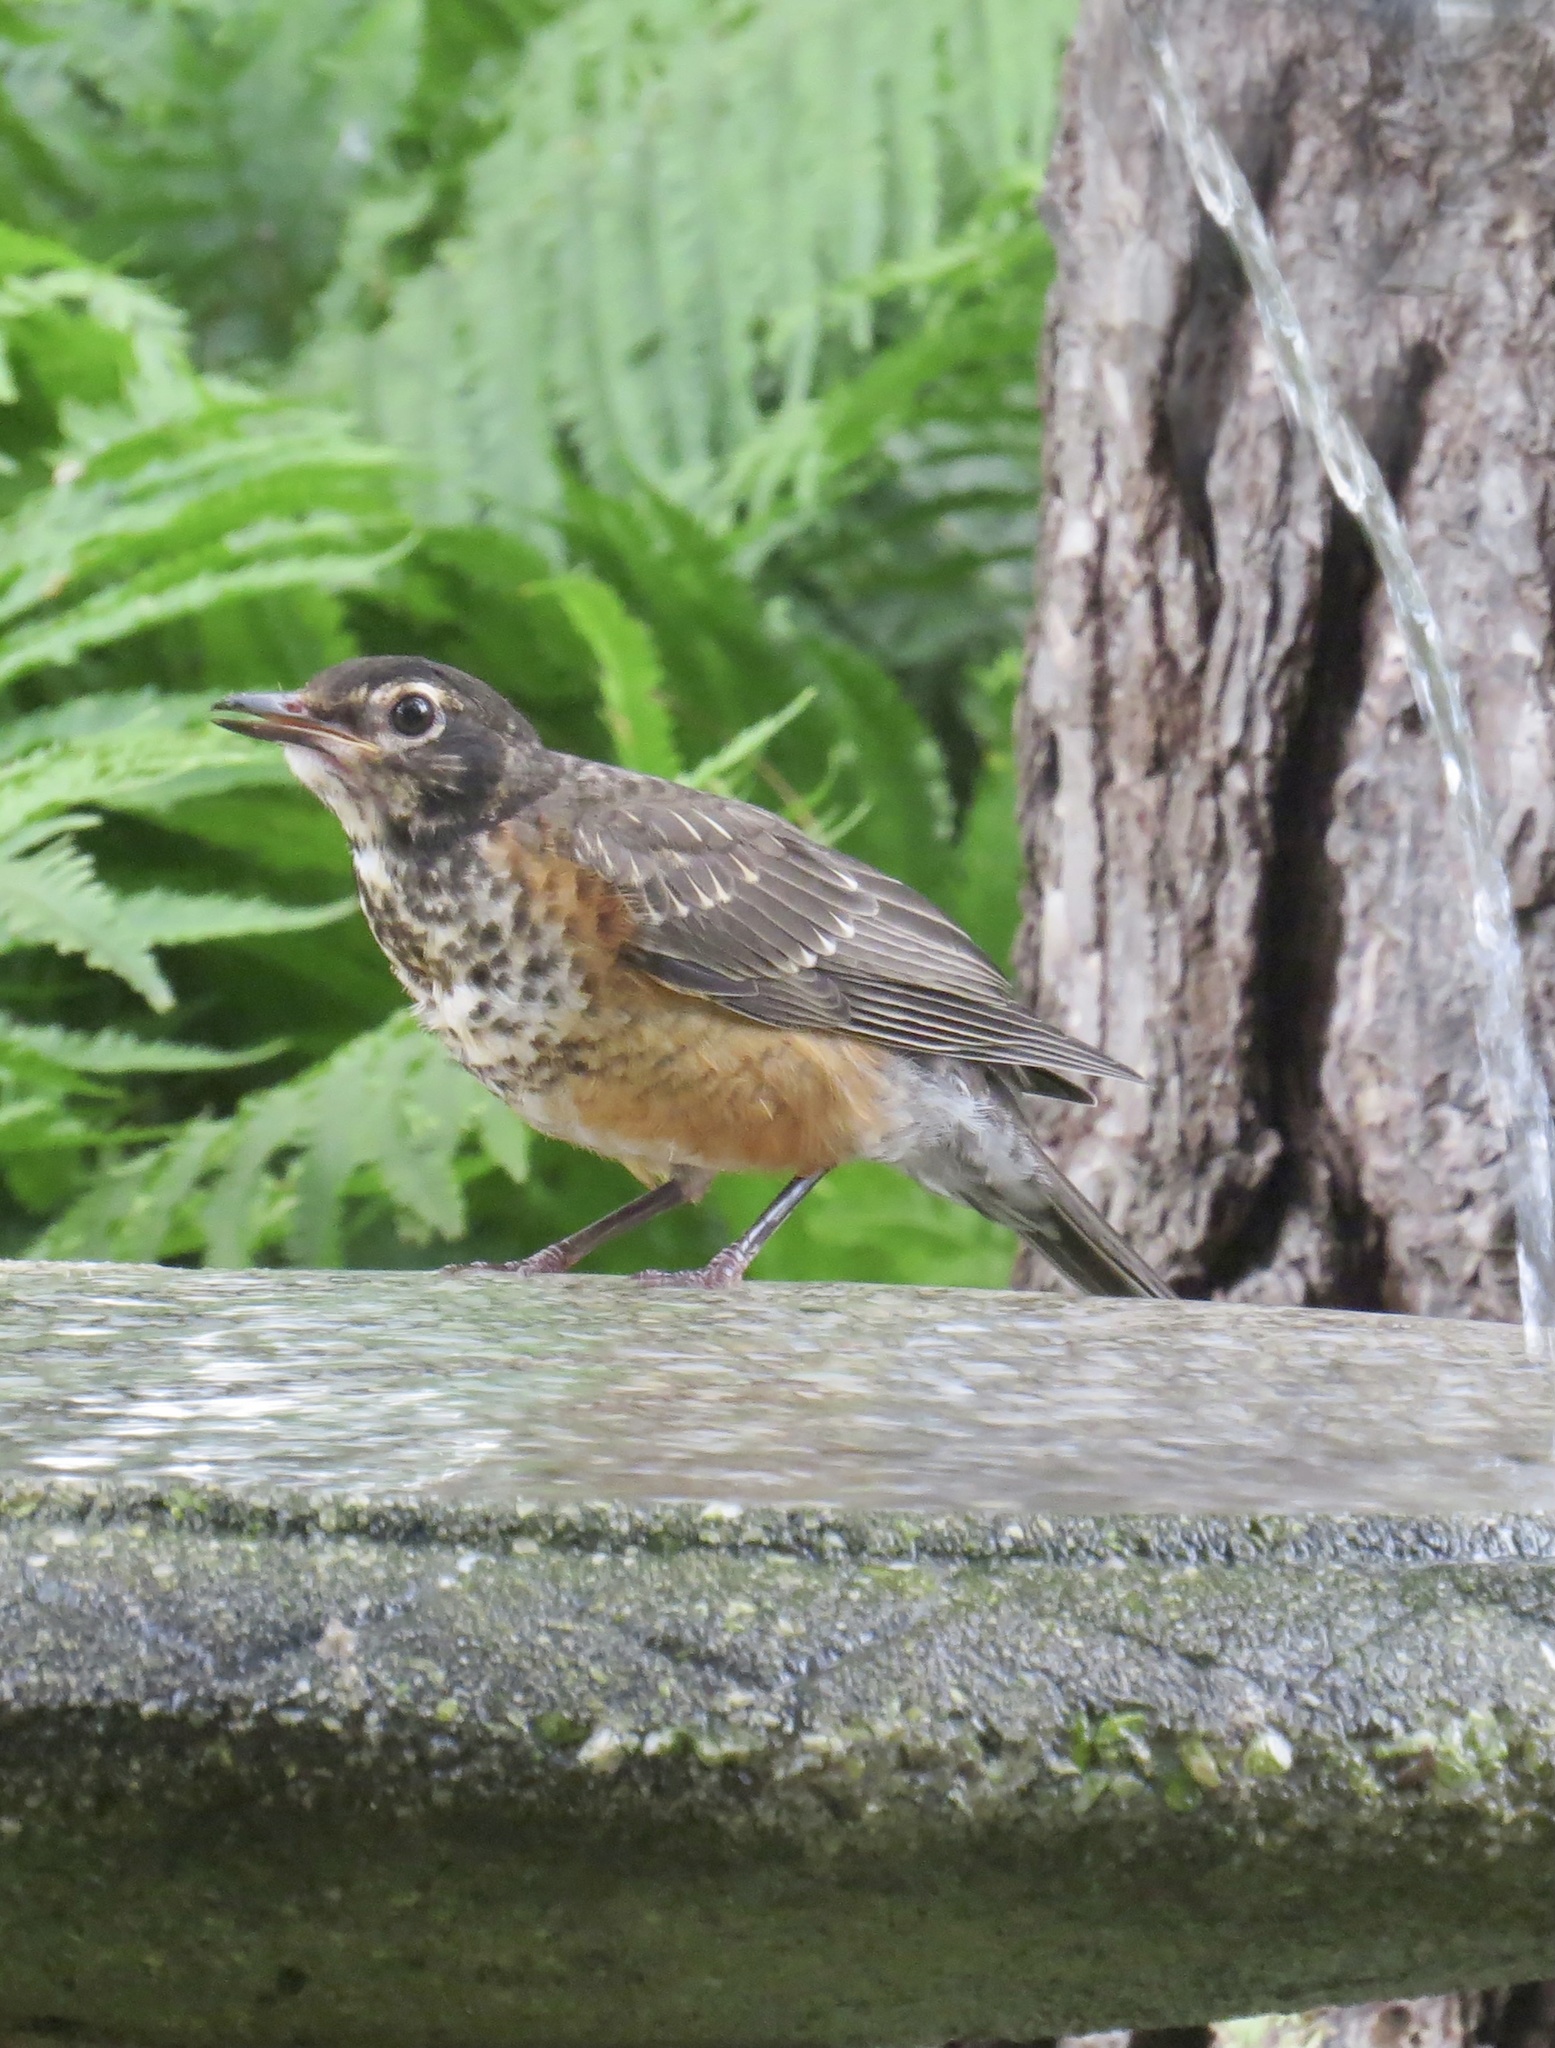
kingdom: Animalia
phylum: Chordata
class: Aves
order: Passeriformes
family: Turdidae
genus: Turdus
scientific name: Turdus migratorius
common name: American robin
